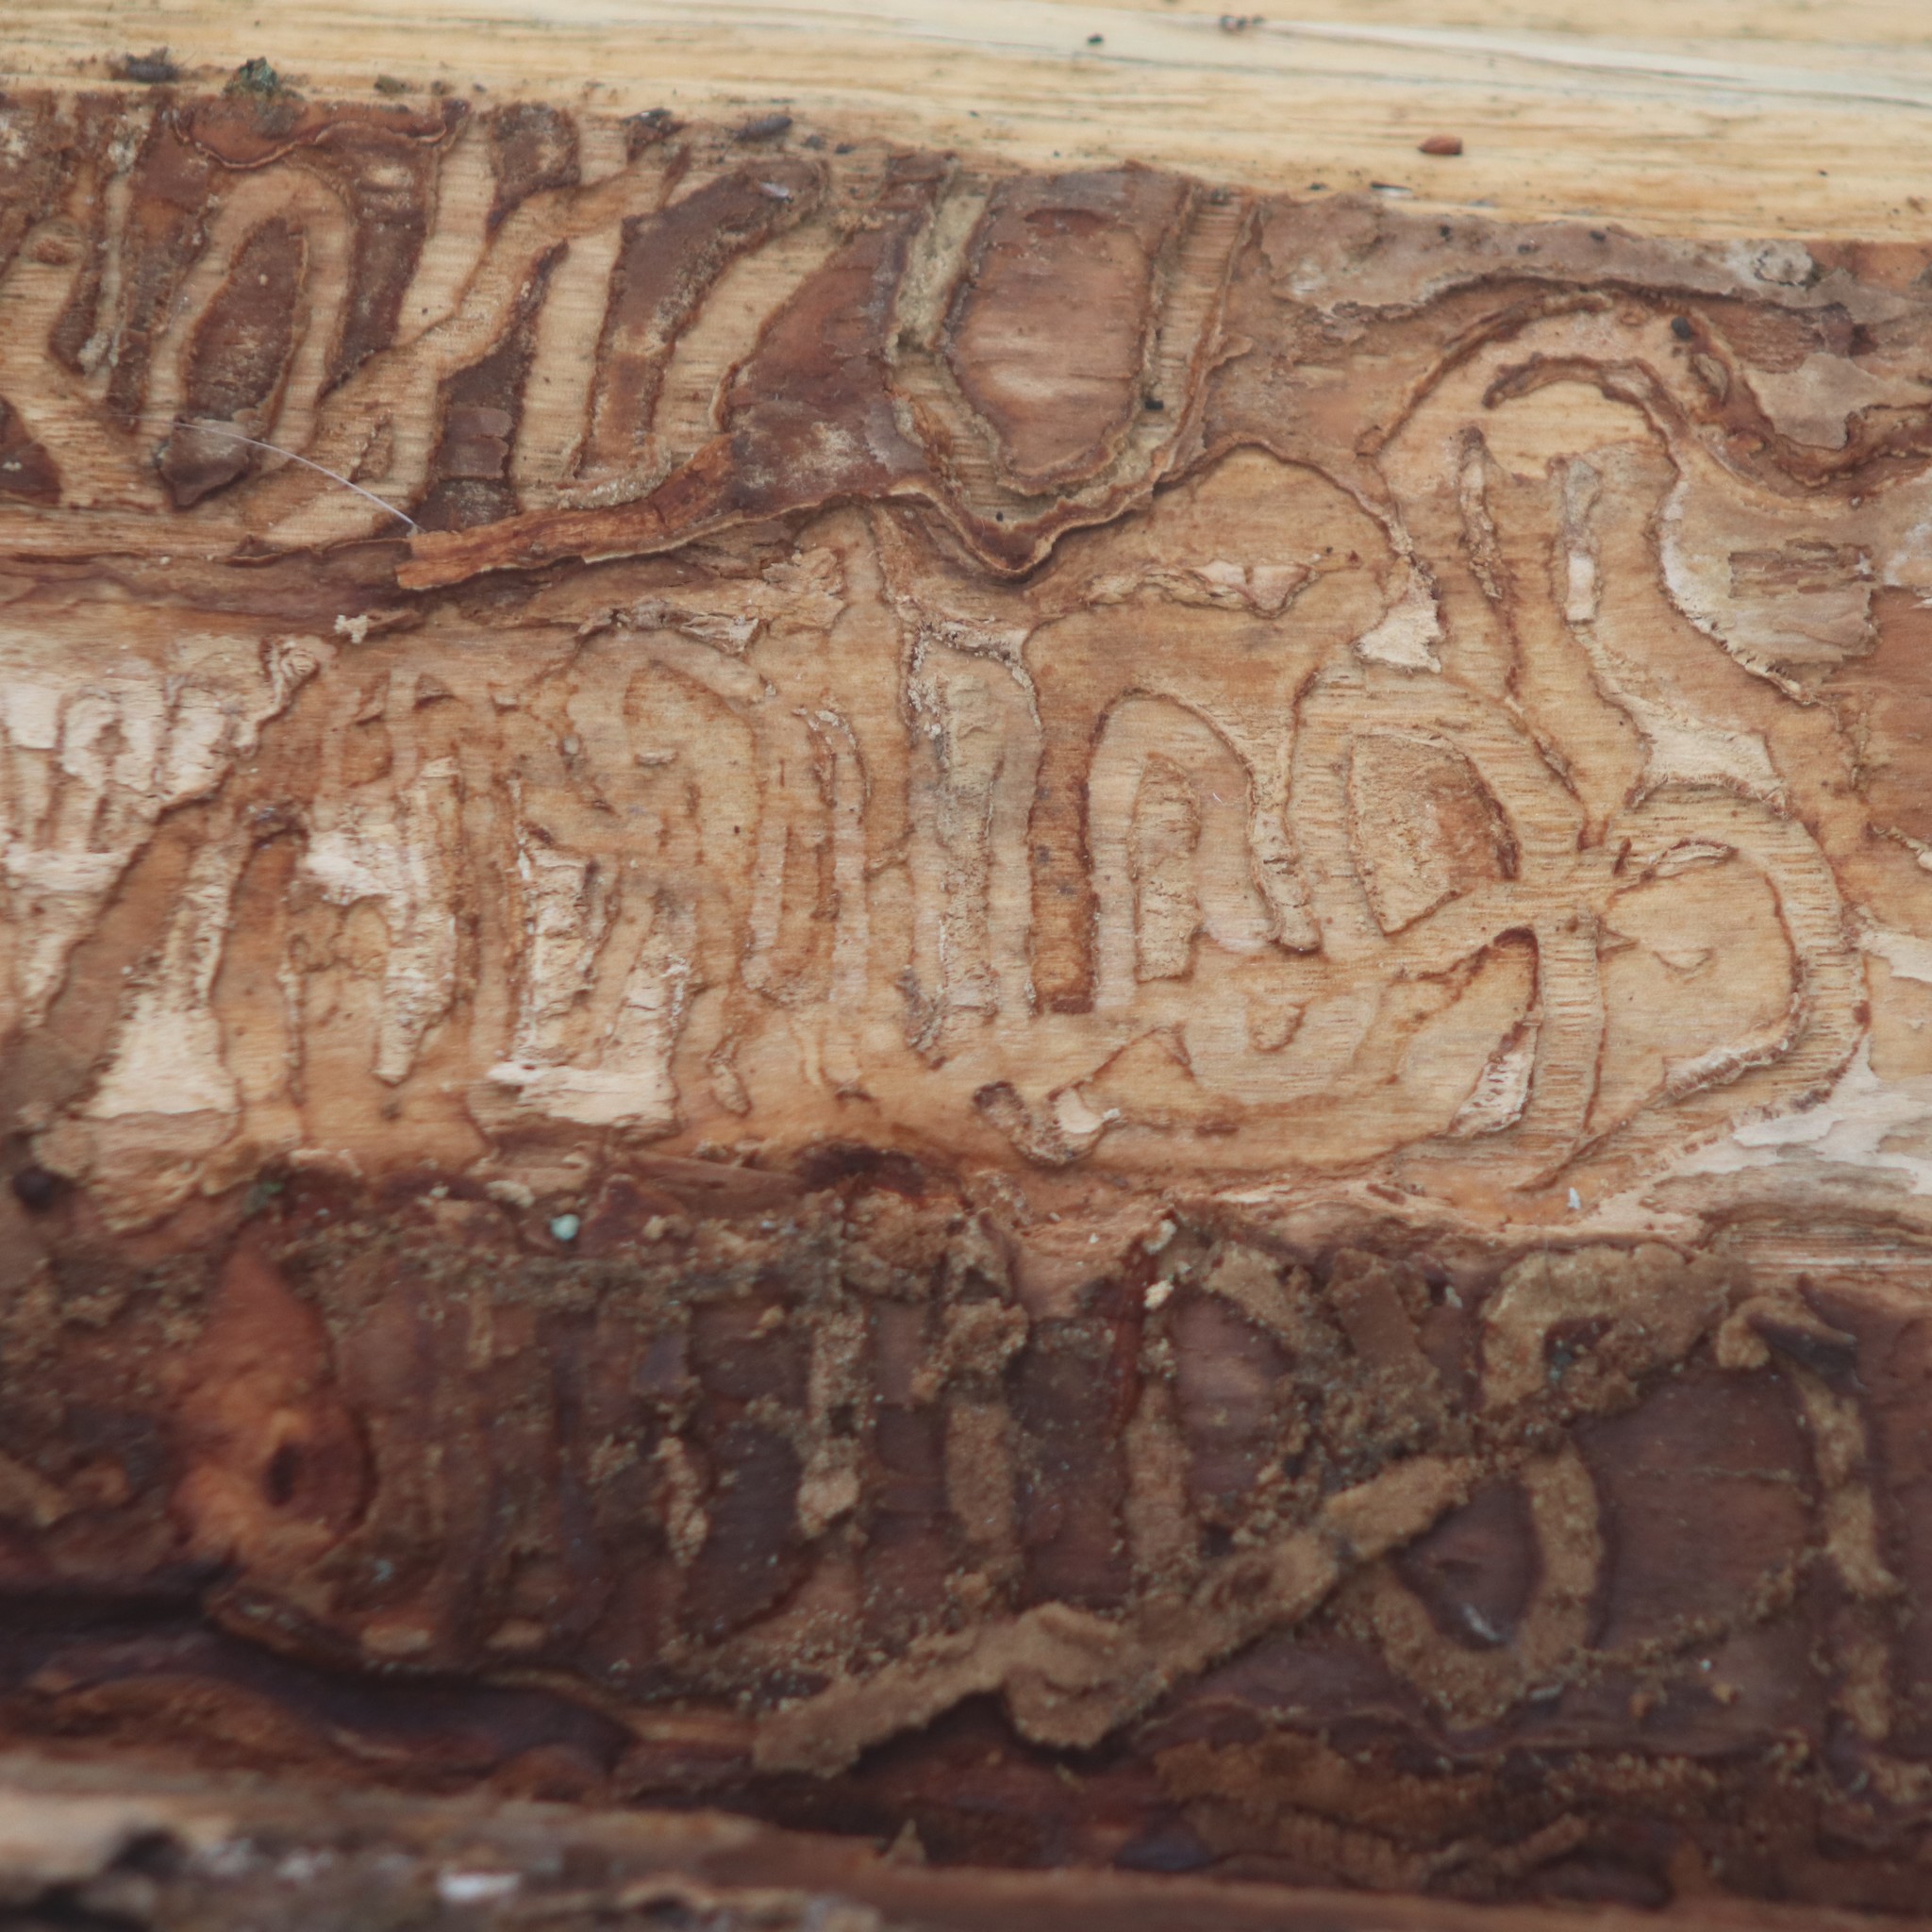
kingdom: Animalia
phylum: Arthropoda
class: Insecta
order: Coleoptera
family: Buprestidae
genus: Agrilus
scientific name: Agrilus planipennis
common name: Emerald ash borer
